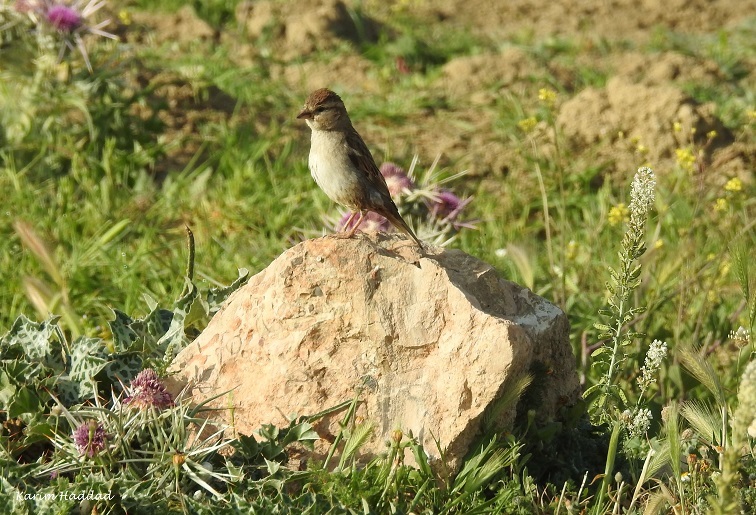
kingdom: Animalia
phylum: Chordata
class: Aves
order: Passeriformes
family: Fringillidae
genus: Linaria
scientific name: Linaria cannabina
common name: Common linnet
